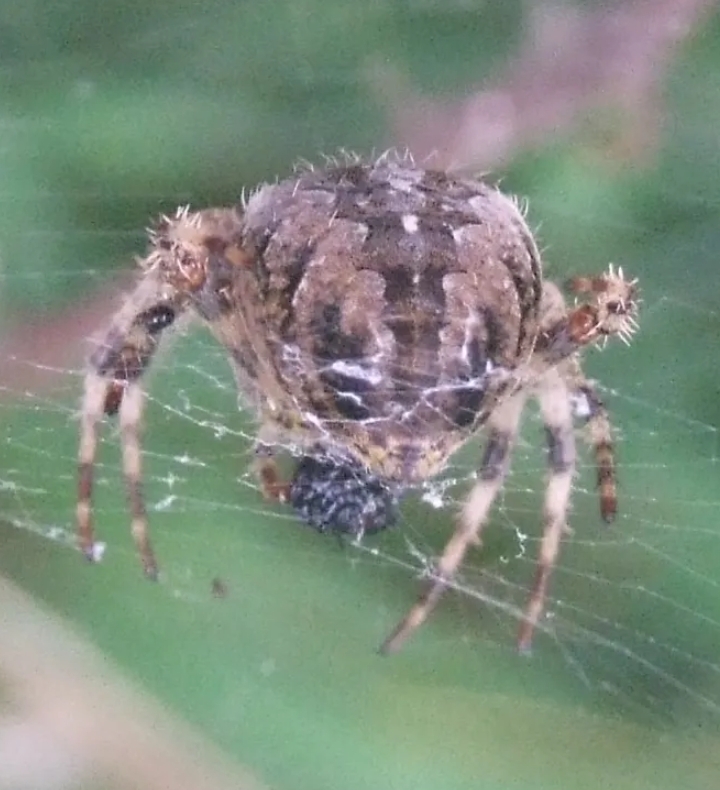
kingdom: Animalia
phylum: Arthropoda
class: Arachnida
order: Araneae
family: Araneidae
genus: Araneus
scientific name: Araneus diadematus
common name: Cross orbweaver
